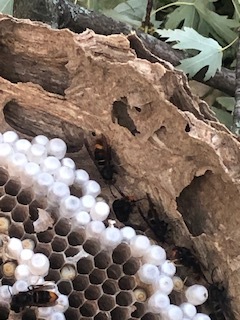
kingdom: Animalia
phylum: Arthropoda
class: Insecta
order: Hymenoptera
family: Vespidae
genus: Vespa
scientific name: Vespa velutina
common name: Asian hornet
